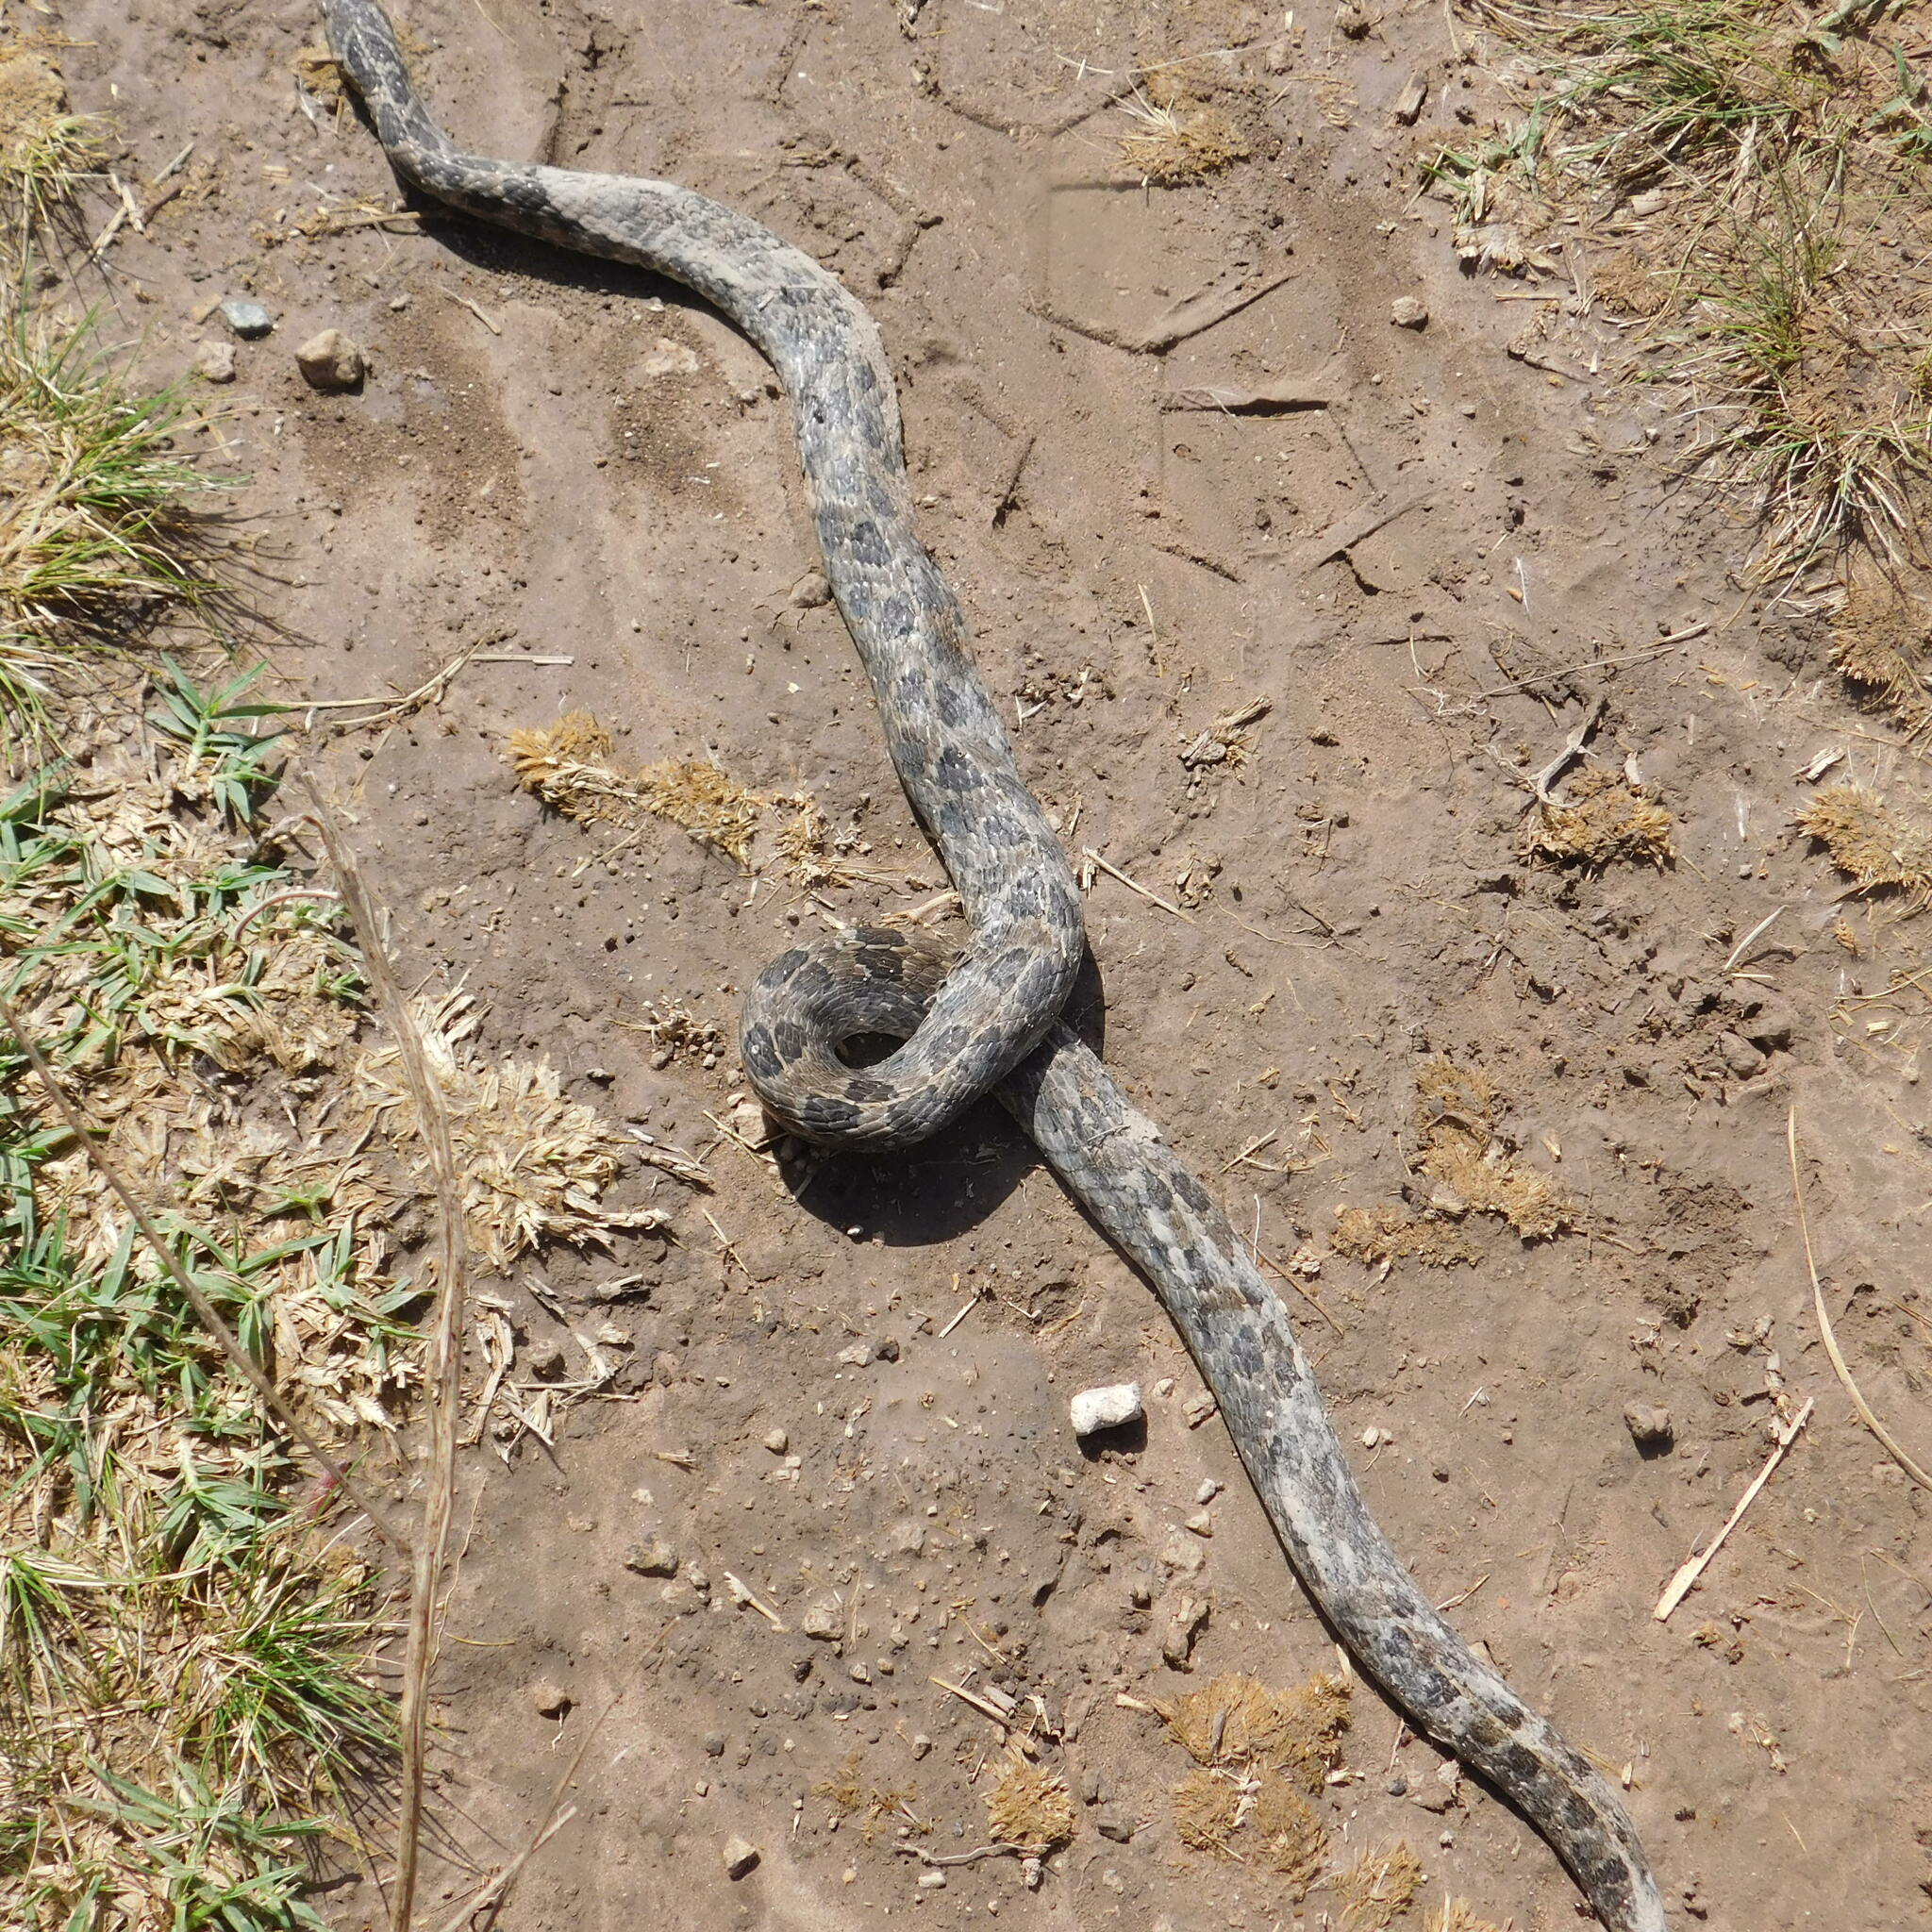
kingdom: Animalia
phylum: Chordata
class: Squamata
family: Colubridae
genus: Tachymenis
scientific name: Tachymenis
